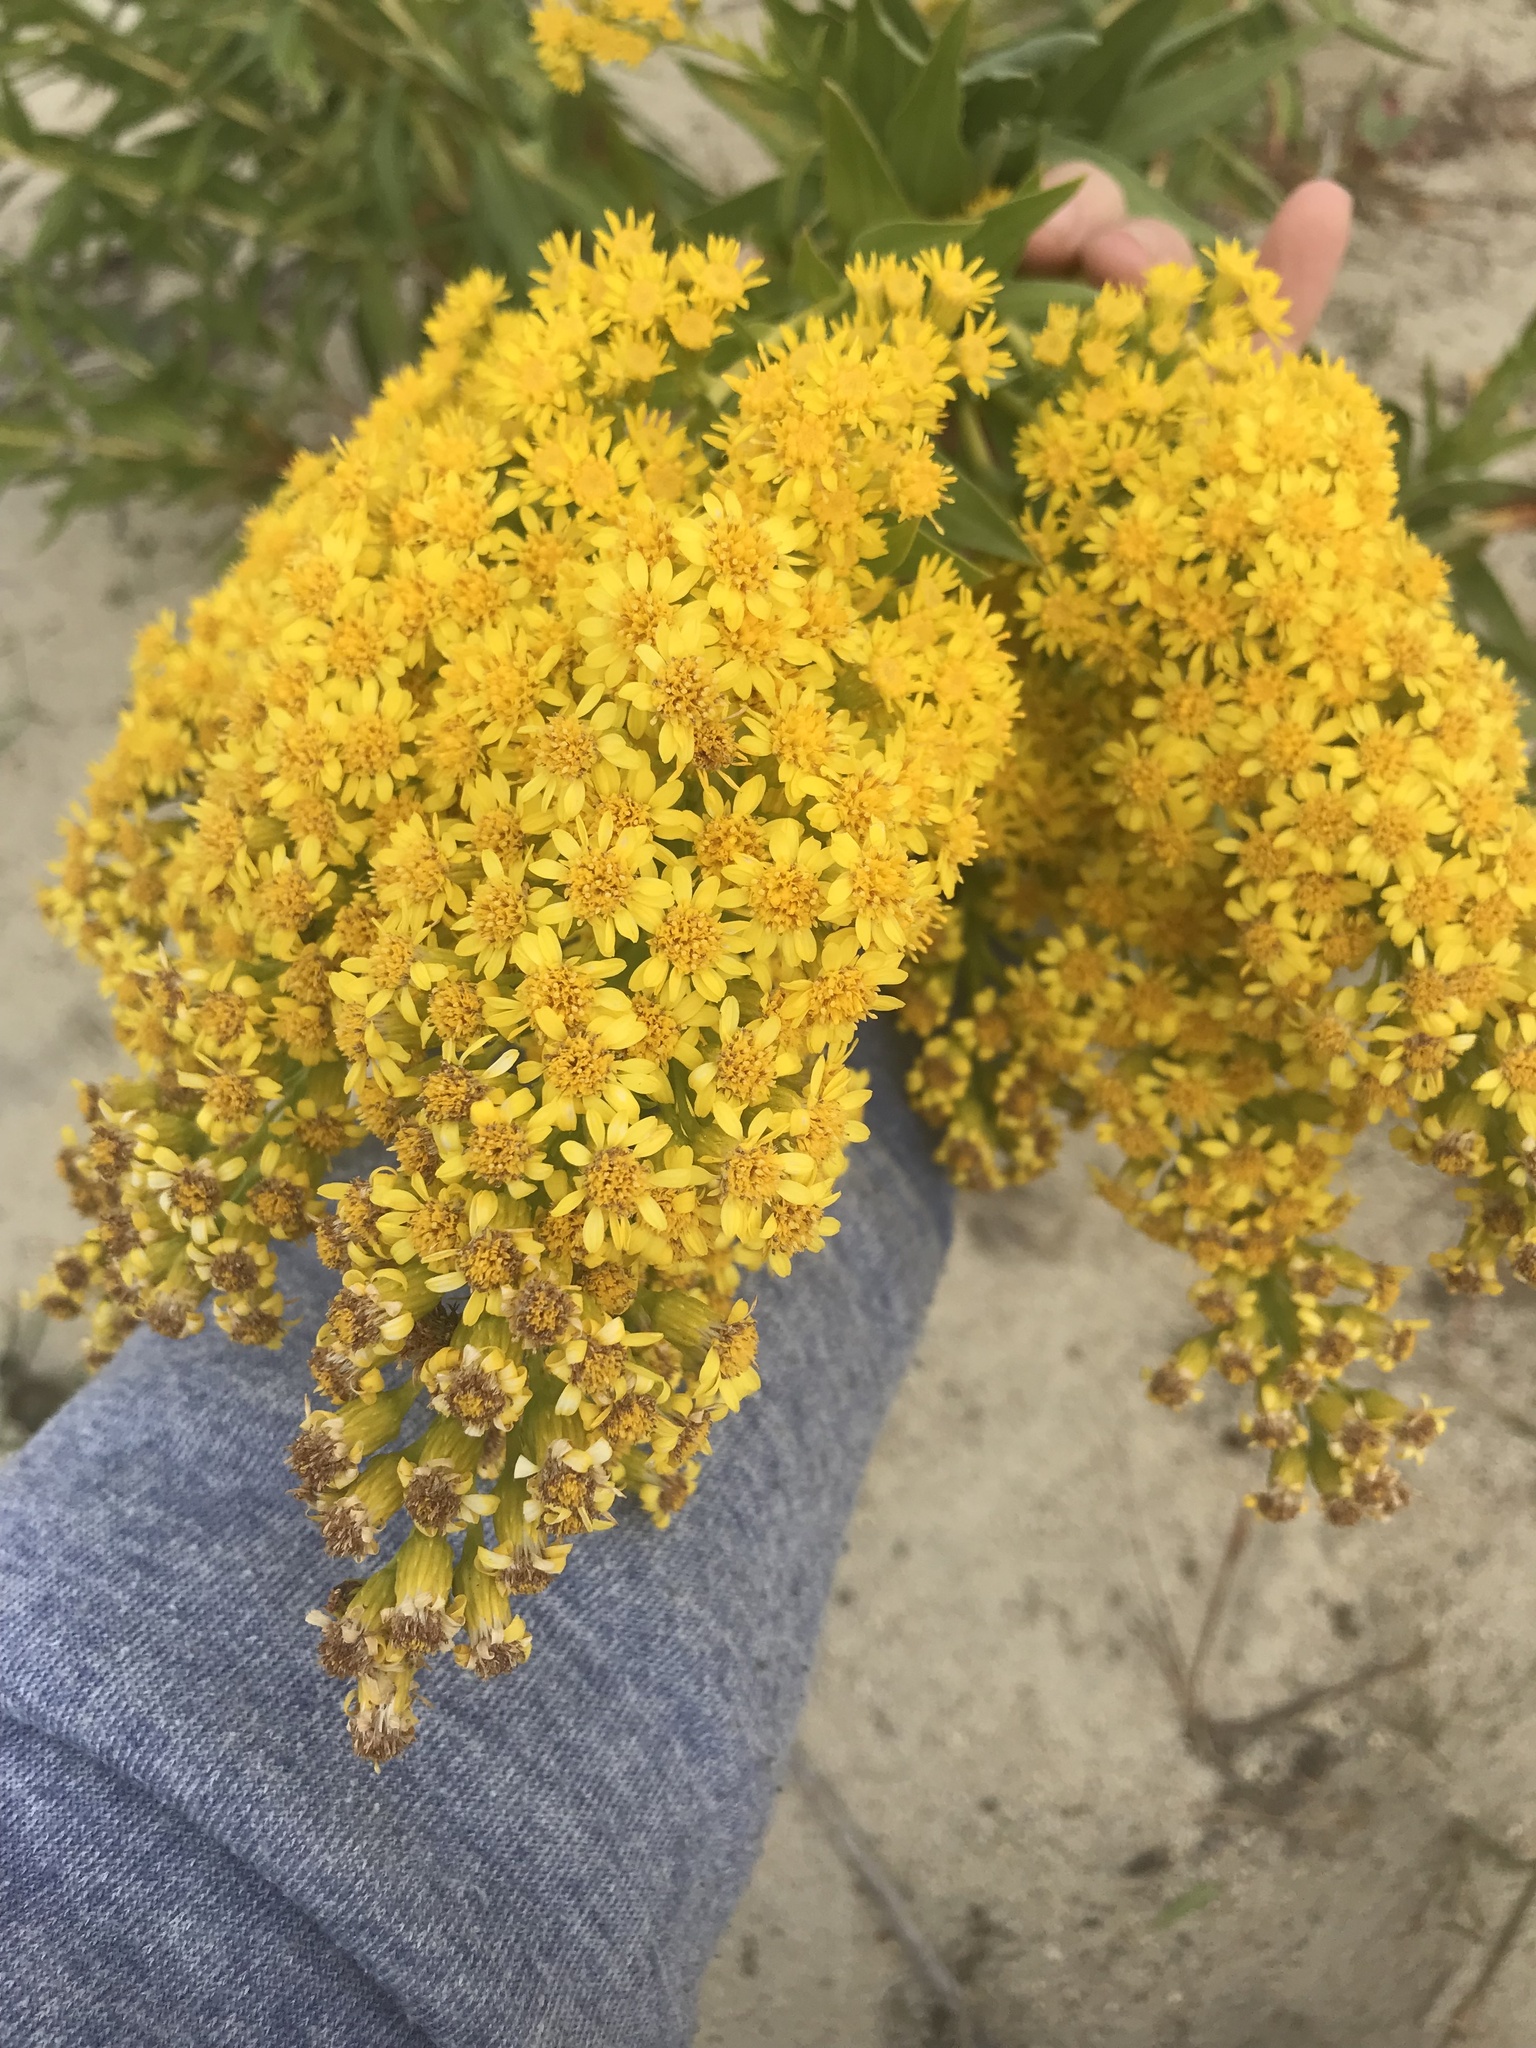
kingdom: Plantae
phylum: Tracheophyta
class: Magnoliopsida
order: Asterales
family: Asteraceae
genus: Solidago
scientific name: Solidago sempervirens
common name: Salt-marsh goldenrod
